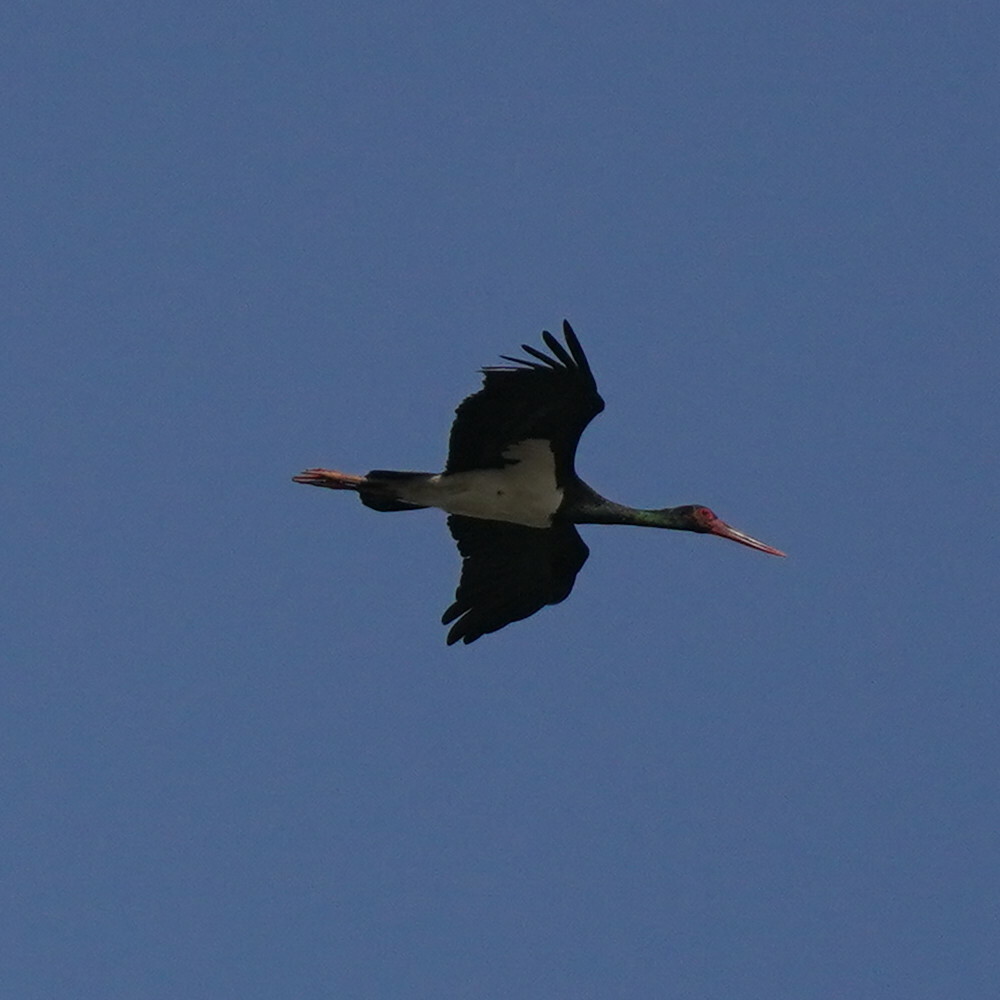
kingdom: Animalia
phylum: Chordata
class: Aves
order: Ciconiiformes
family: Ciconiidae
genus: Ciconia
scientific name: Ciconia nigra
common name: Black stork
